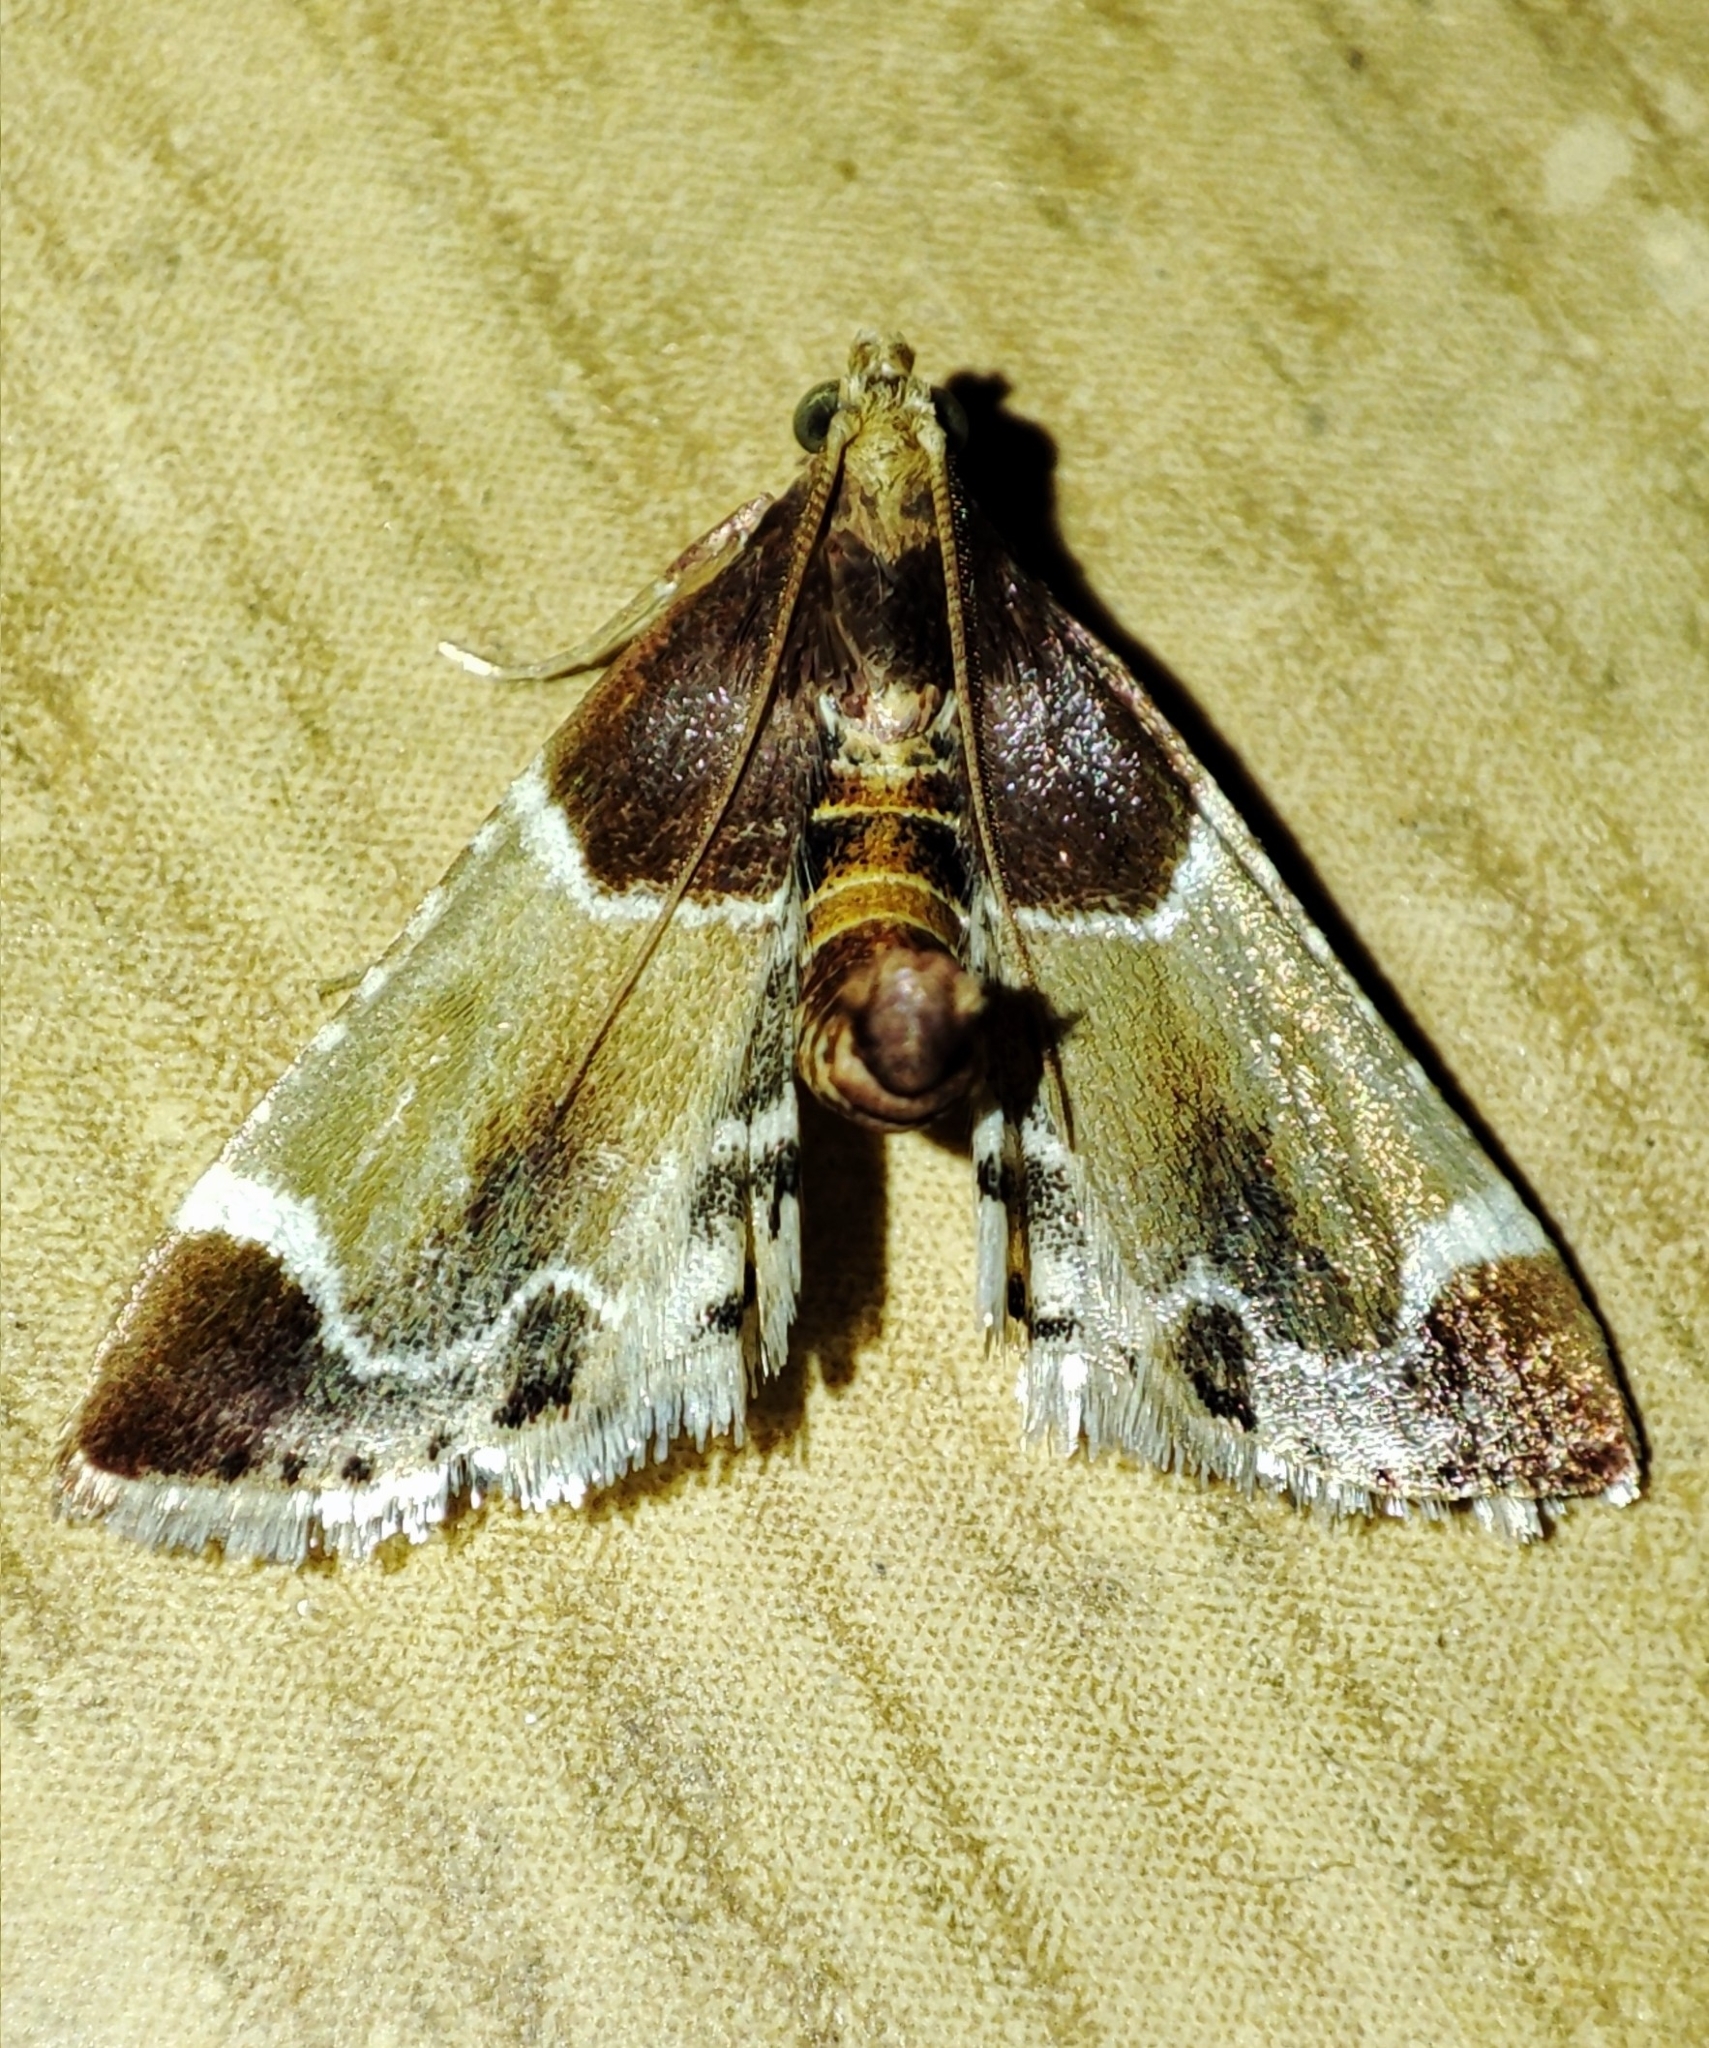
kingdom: Animalia
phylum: Arthropoda
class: Insecta
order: Lepidoptera
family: Pyralidae
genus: Pyralis
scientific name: Pyralis farinalis
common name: Meal moth
